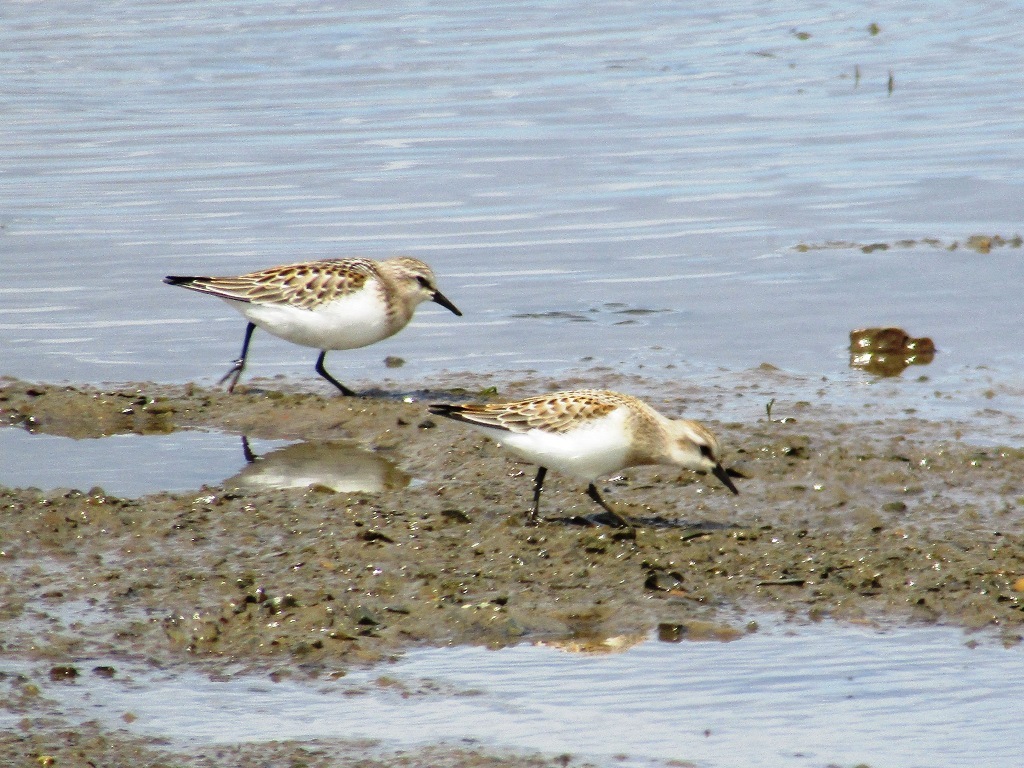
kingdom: Animalia
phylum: Chordata
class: Aves
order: Charadriiformes
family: Scolopacidae
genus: Calidris
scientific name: Calidris ruficollis
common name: Red-necked stint
